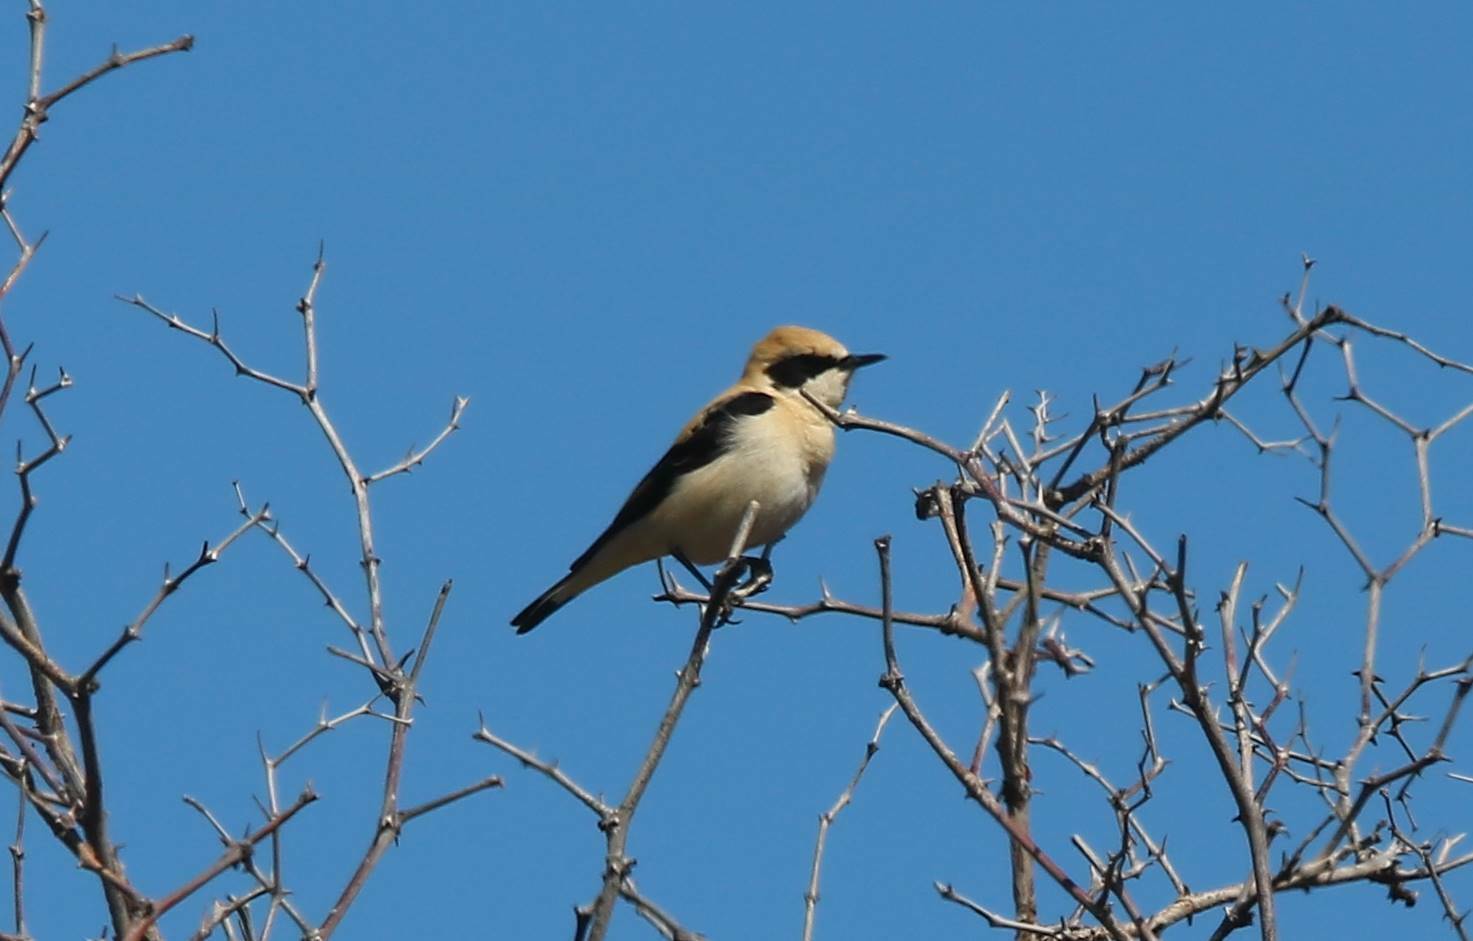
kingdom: Animalia
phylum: Chordata
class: Aves
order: Passeriformes
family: Muscicapidae
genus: Oenanthe
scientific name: Oenanthe hispanica
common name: Black-eared wheatear
